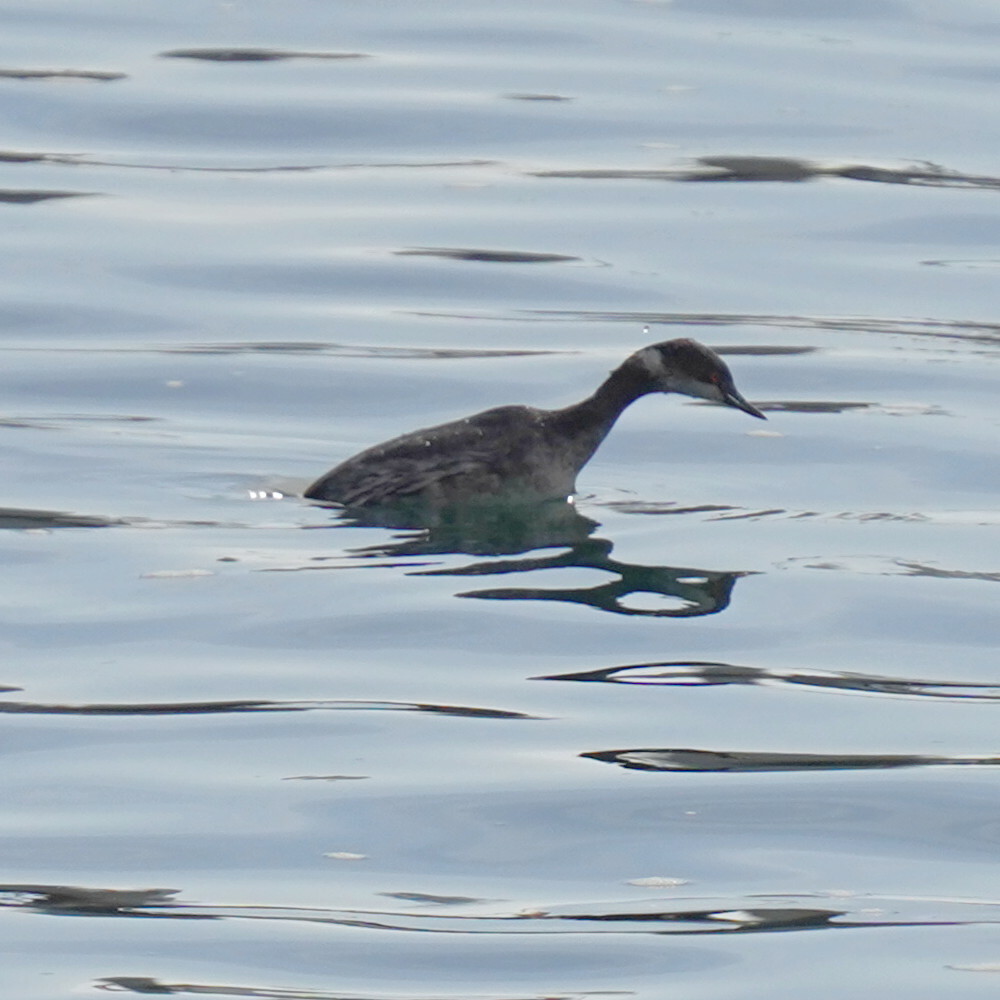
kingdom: Animalia
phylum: Chordata
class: Aves
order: Podicipediformes
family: Podicipedidae
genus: Podiceps
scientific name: Podiceps nigricollis
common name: Black-necked grebe
